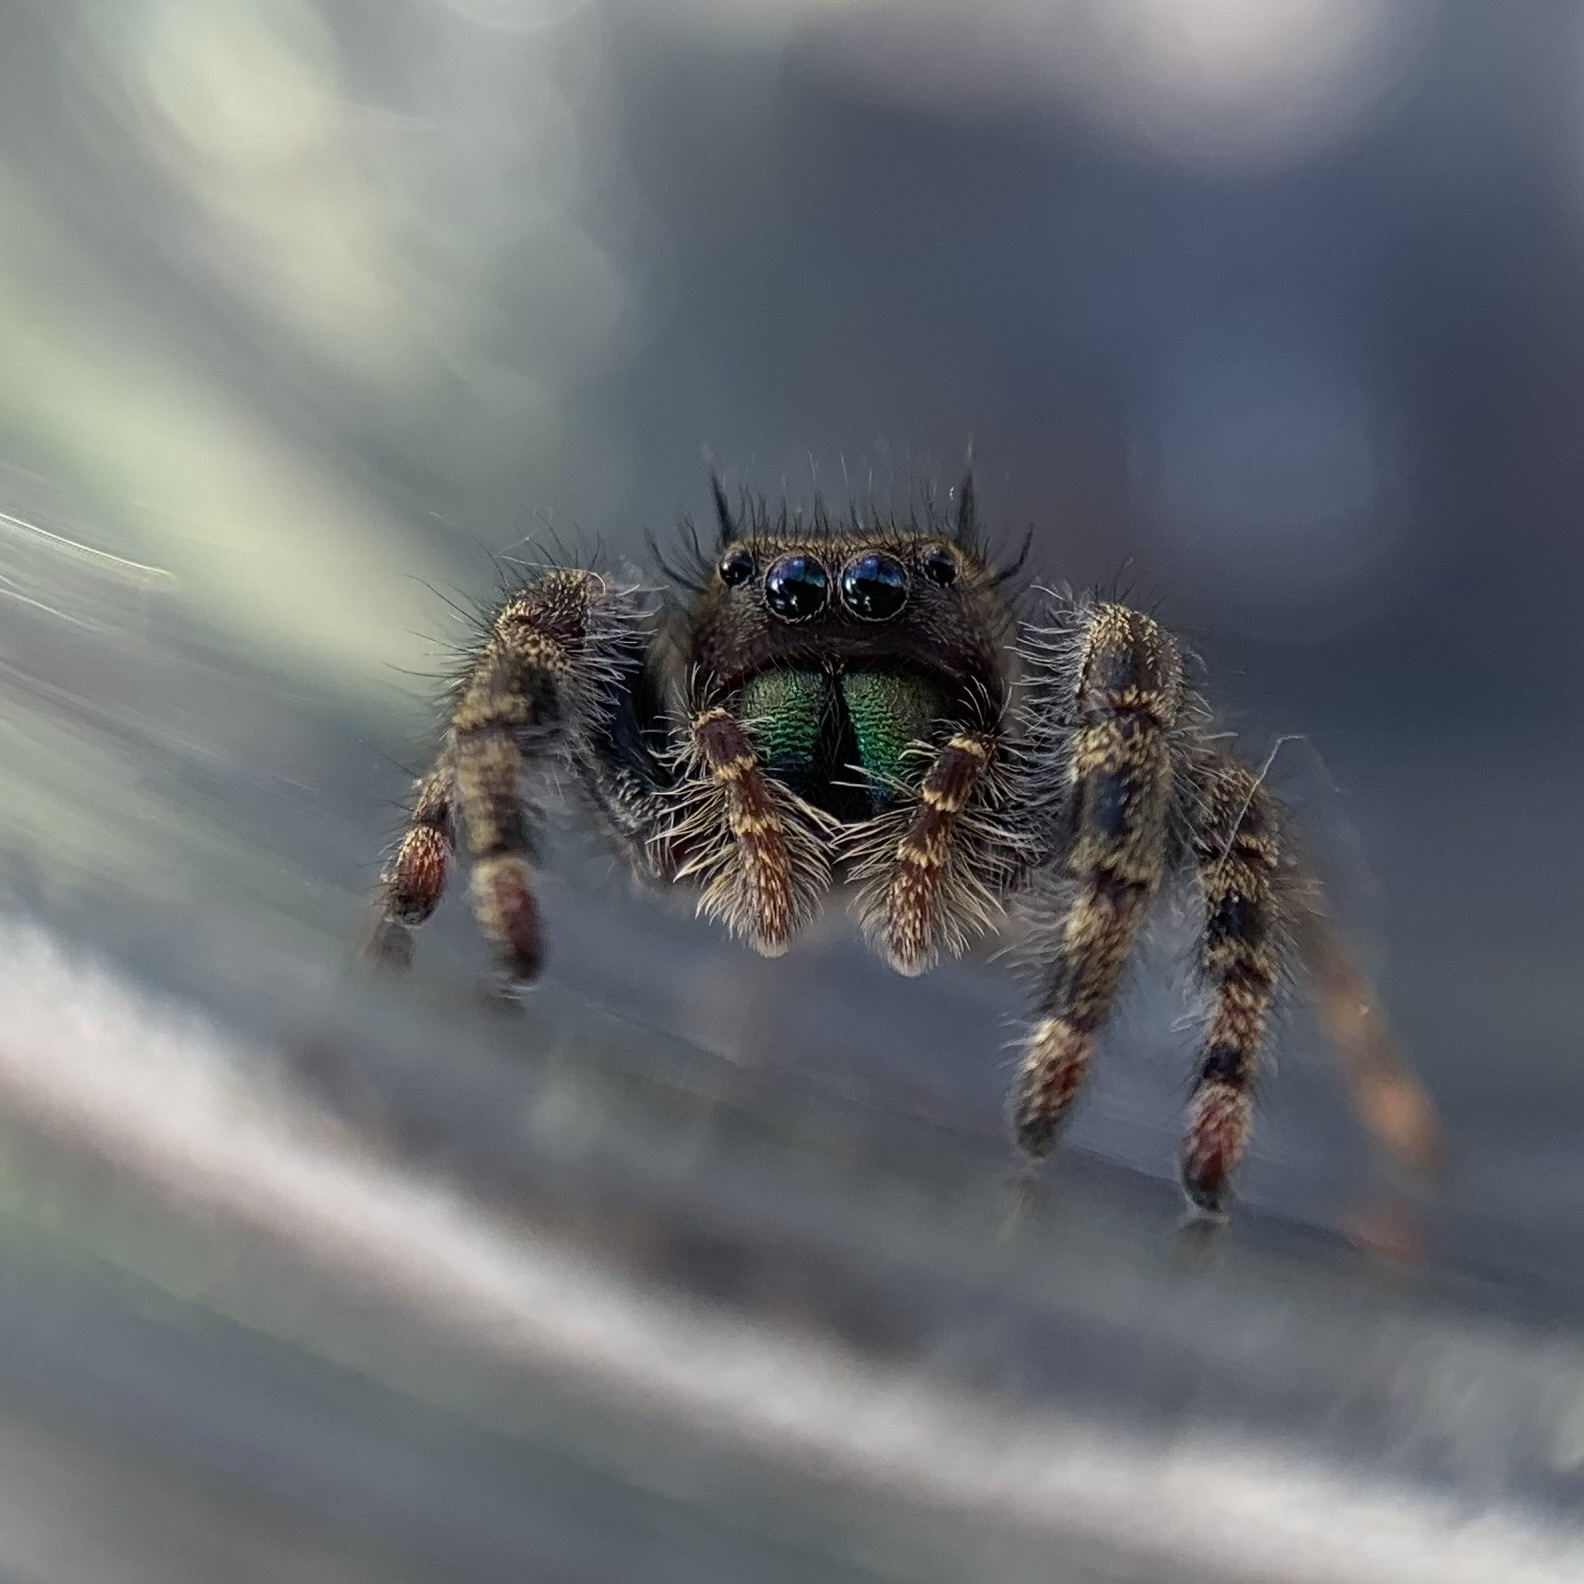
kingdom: Animalia
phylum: Arthropoda
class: Arachnida
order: Araneae
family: Salticidae
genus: Phidippus
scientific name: Phidippus audax
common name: Bold jumper
